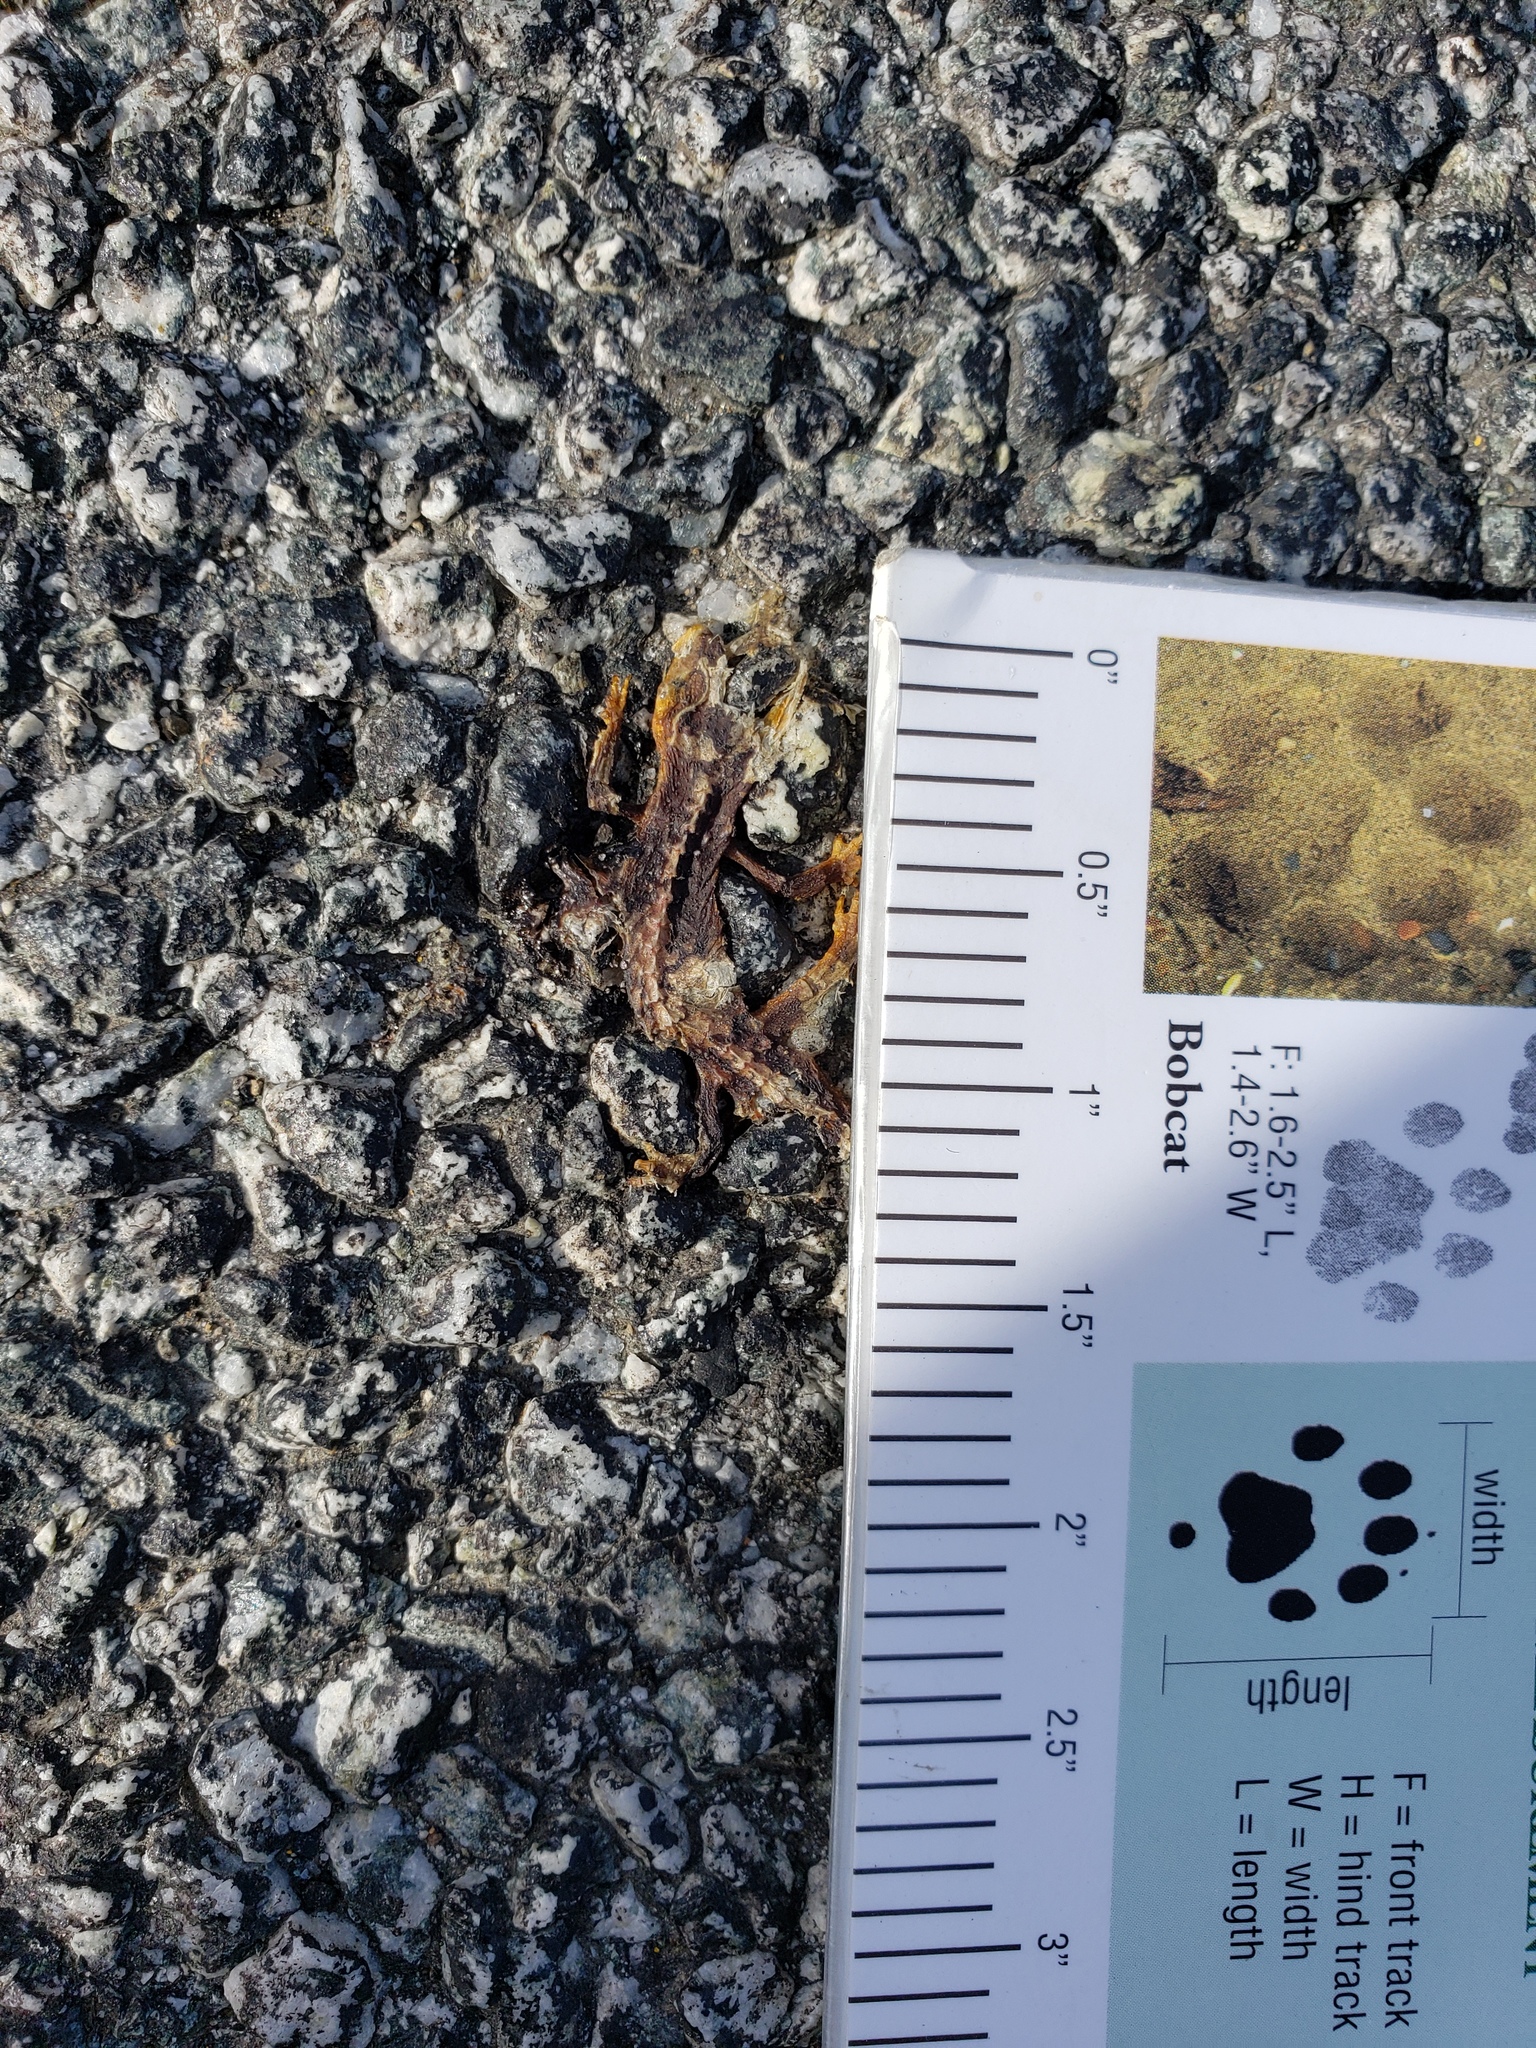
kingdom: Animalia
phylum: Chordata
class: Amphibia
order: Caudata
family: Salamandridae
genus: Taricha
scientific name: Taricha
